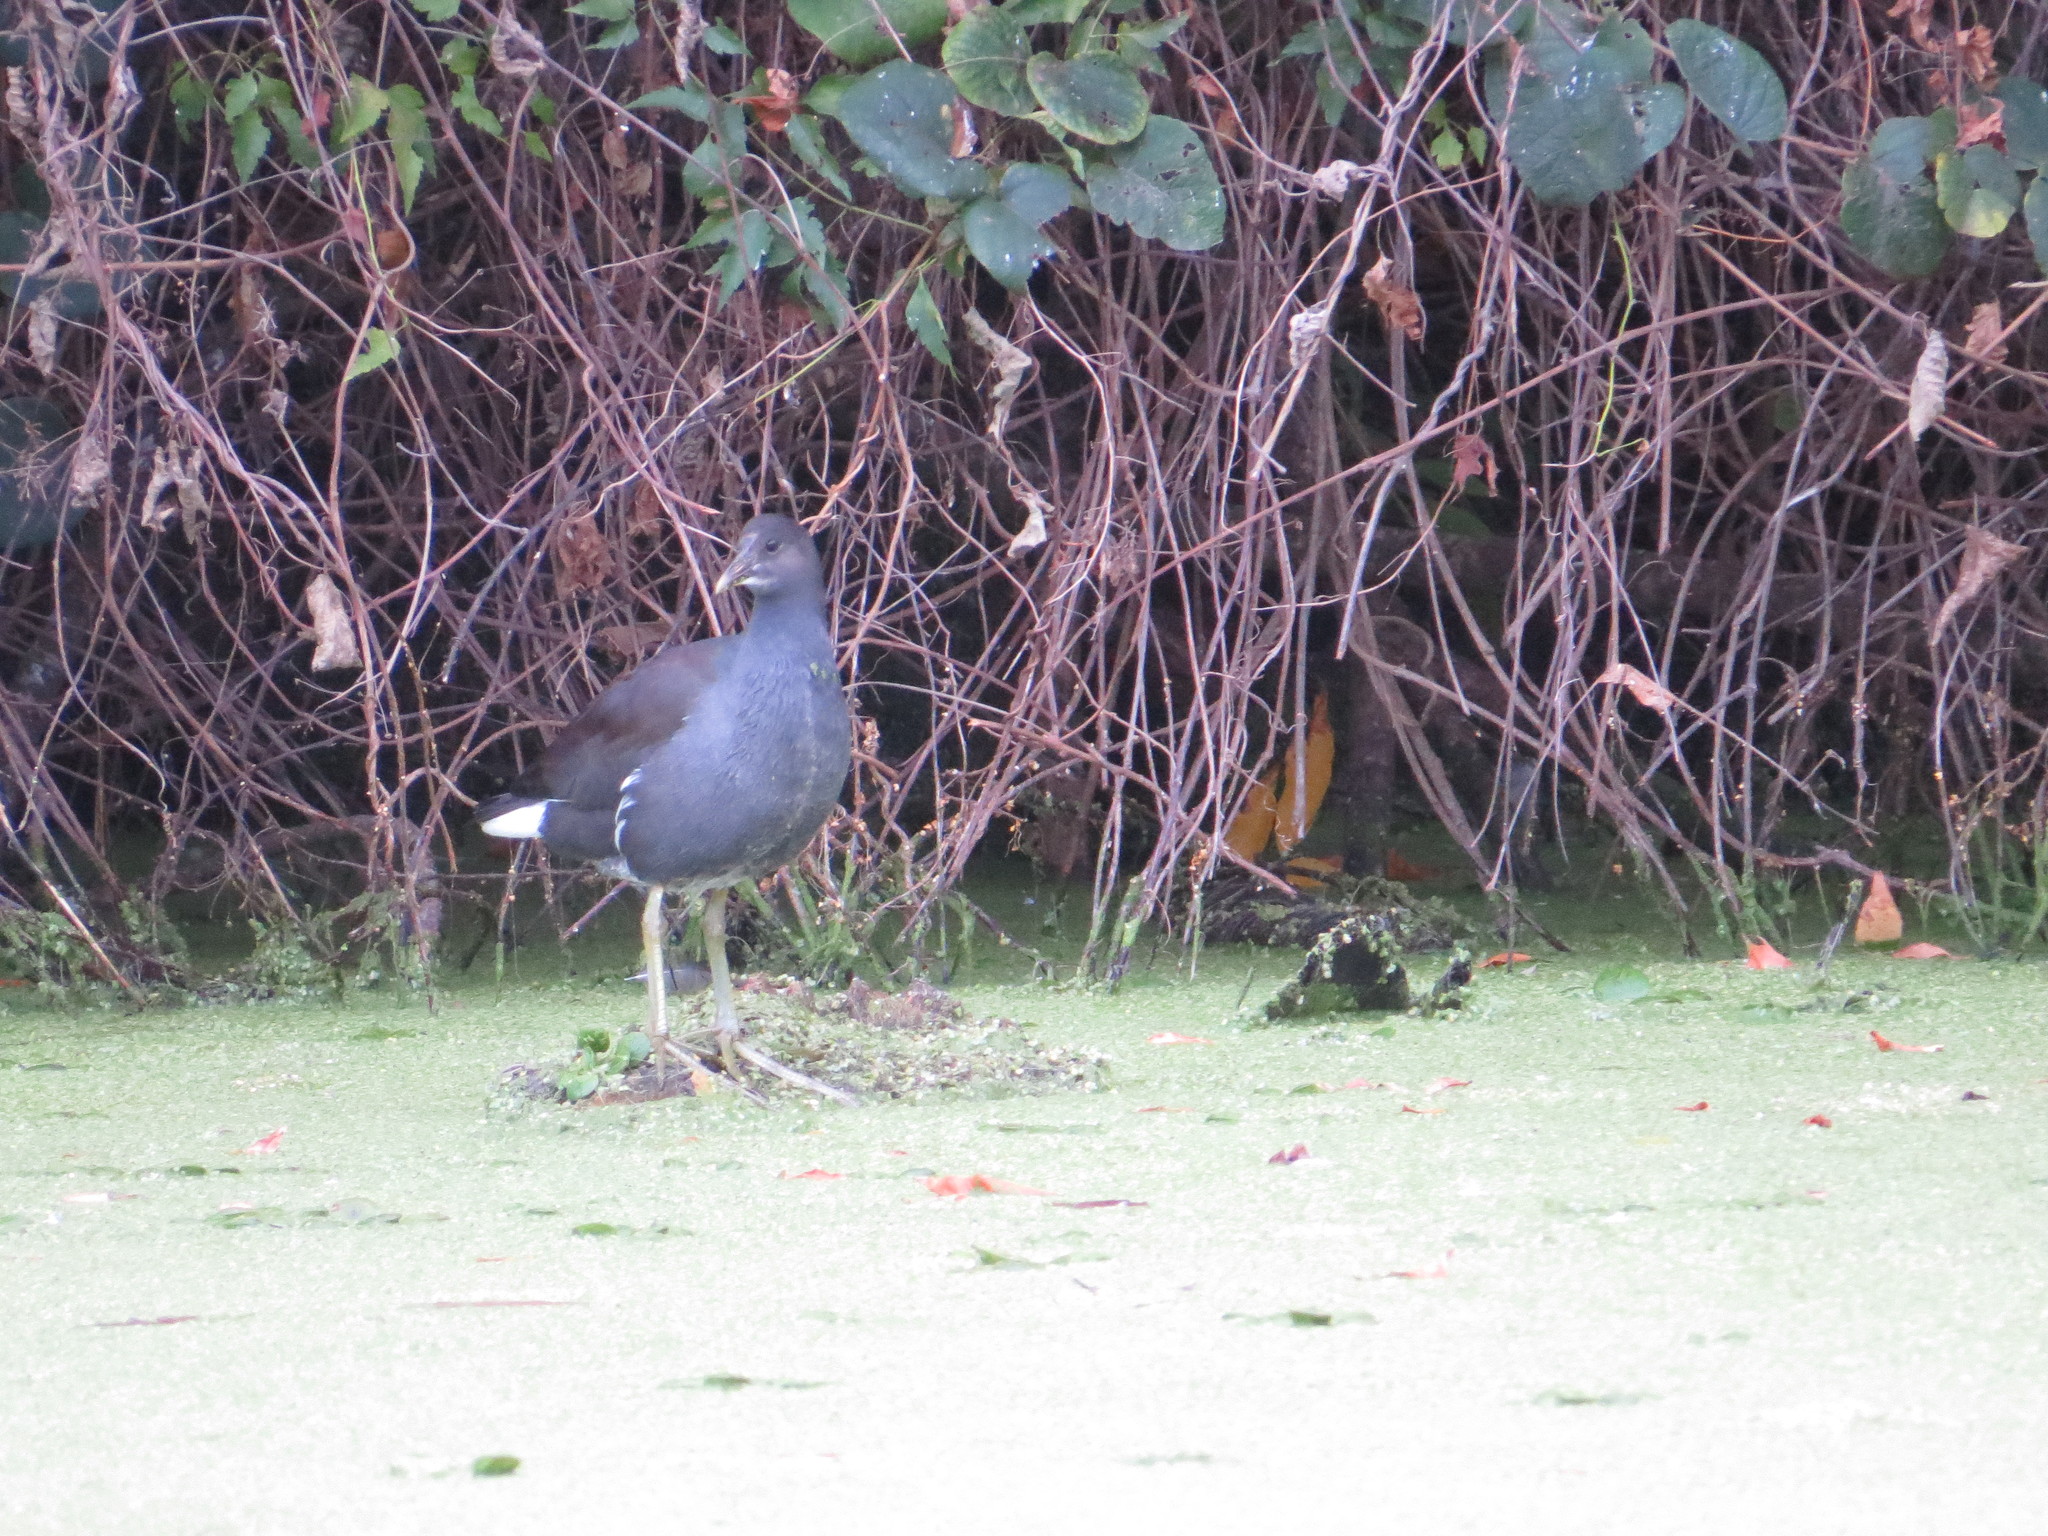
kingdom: Animalia
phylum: Chordata
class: Aves
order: Gruiformes
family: Rallidae
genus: Gallinula
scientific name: Gallinula chloropus
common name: Common moorhen
